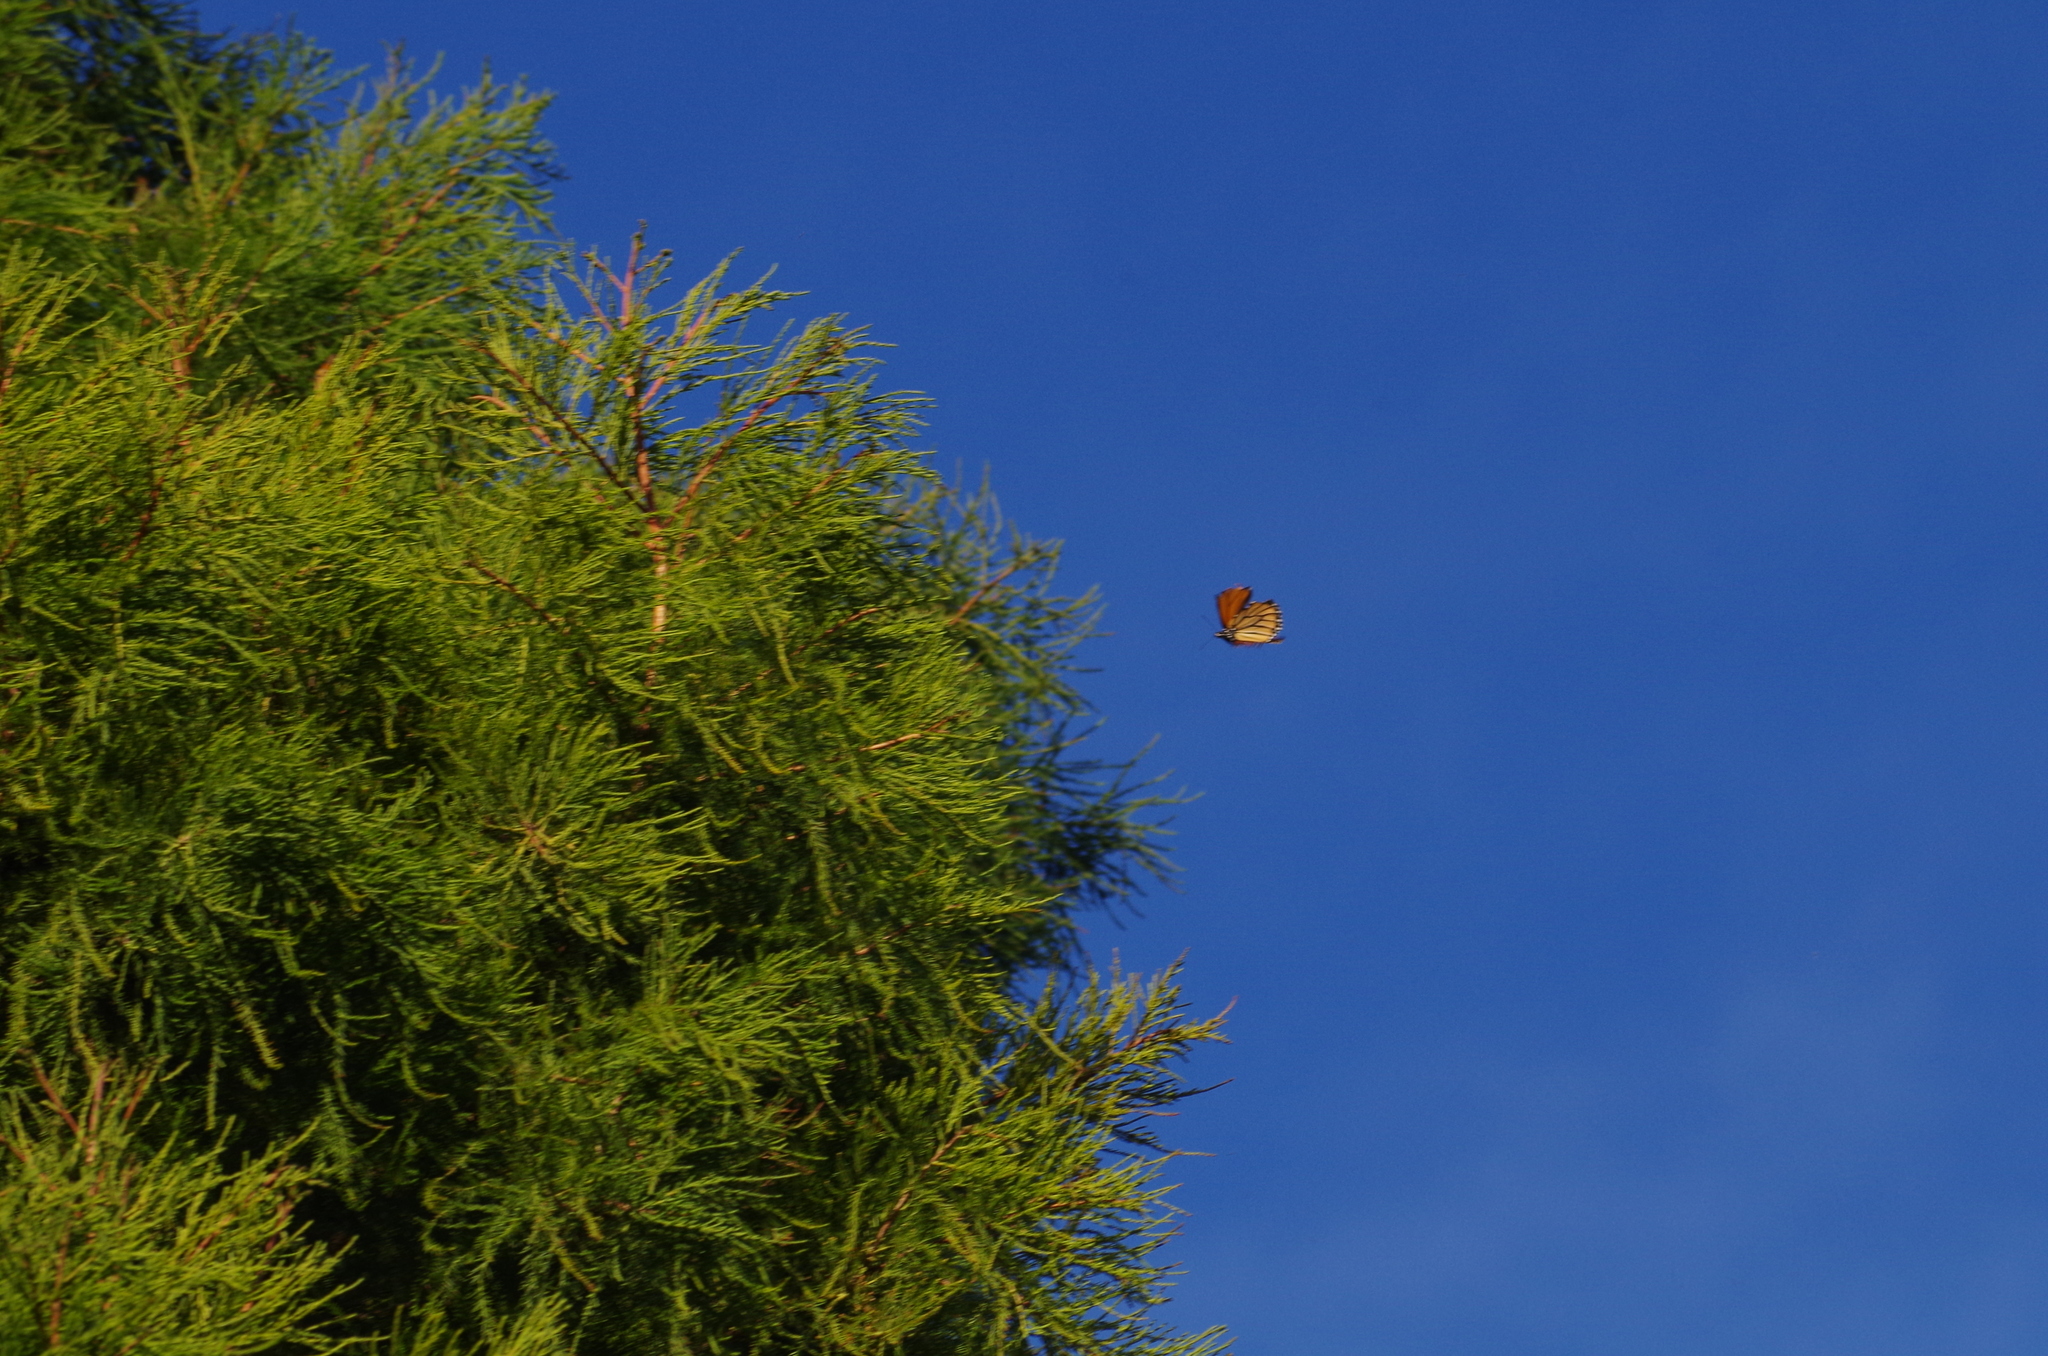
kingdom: Animalia
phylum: Arthropoda
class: Insecta
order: Lepidoptera
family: Nymphalidae
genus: Danaus
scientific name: Danaus plexippus
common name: Monarch
